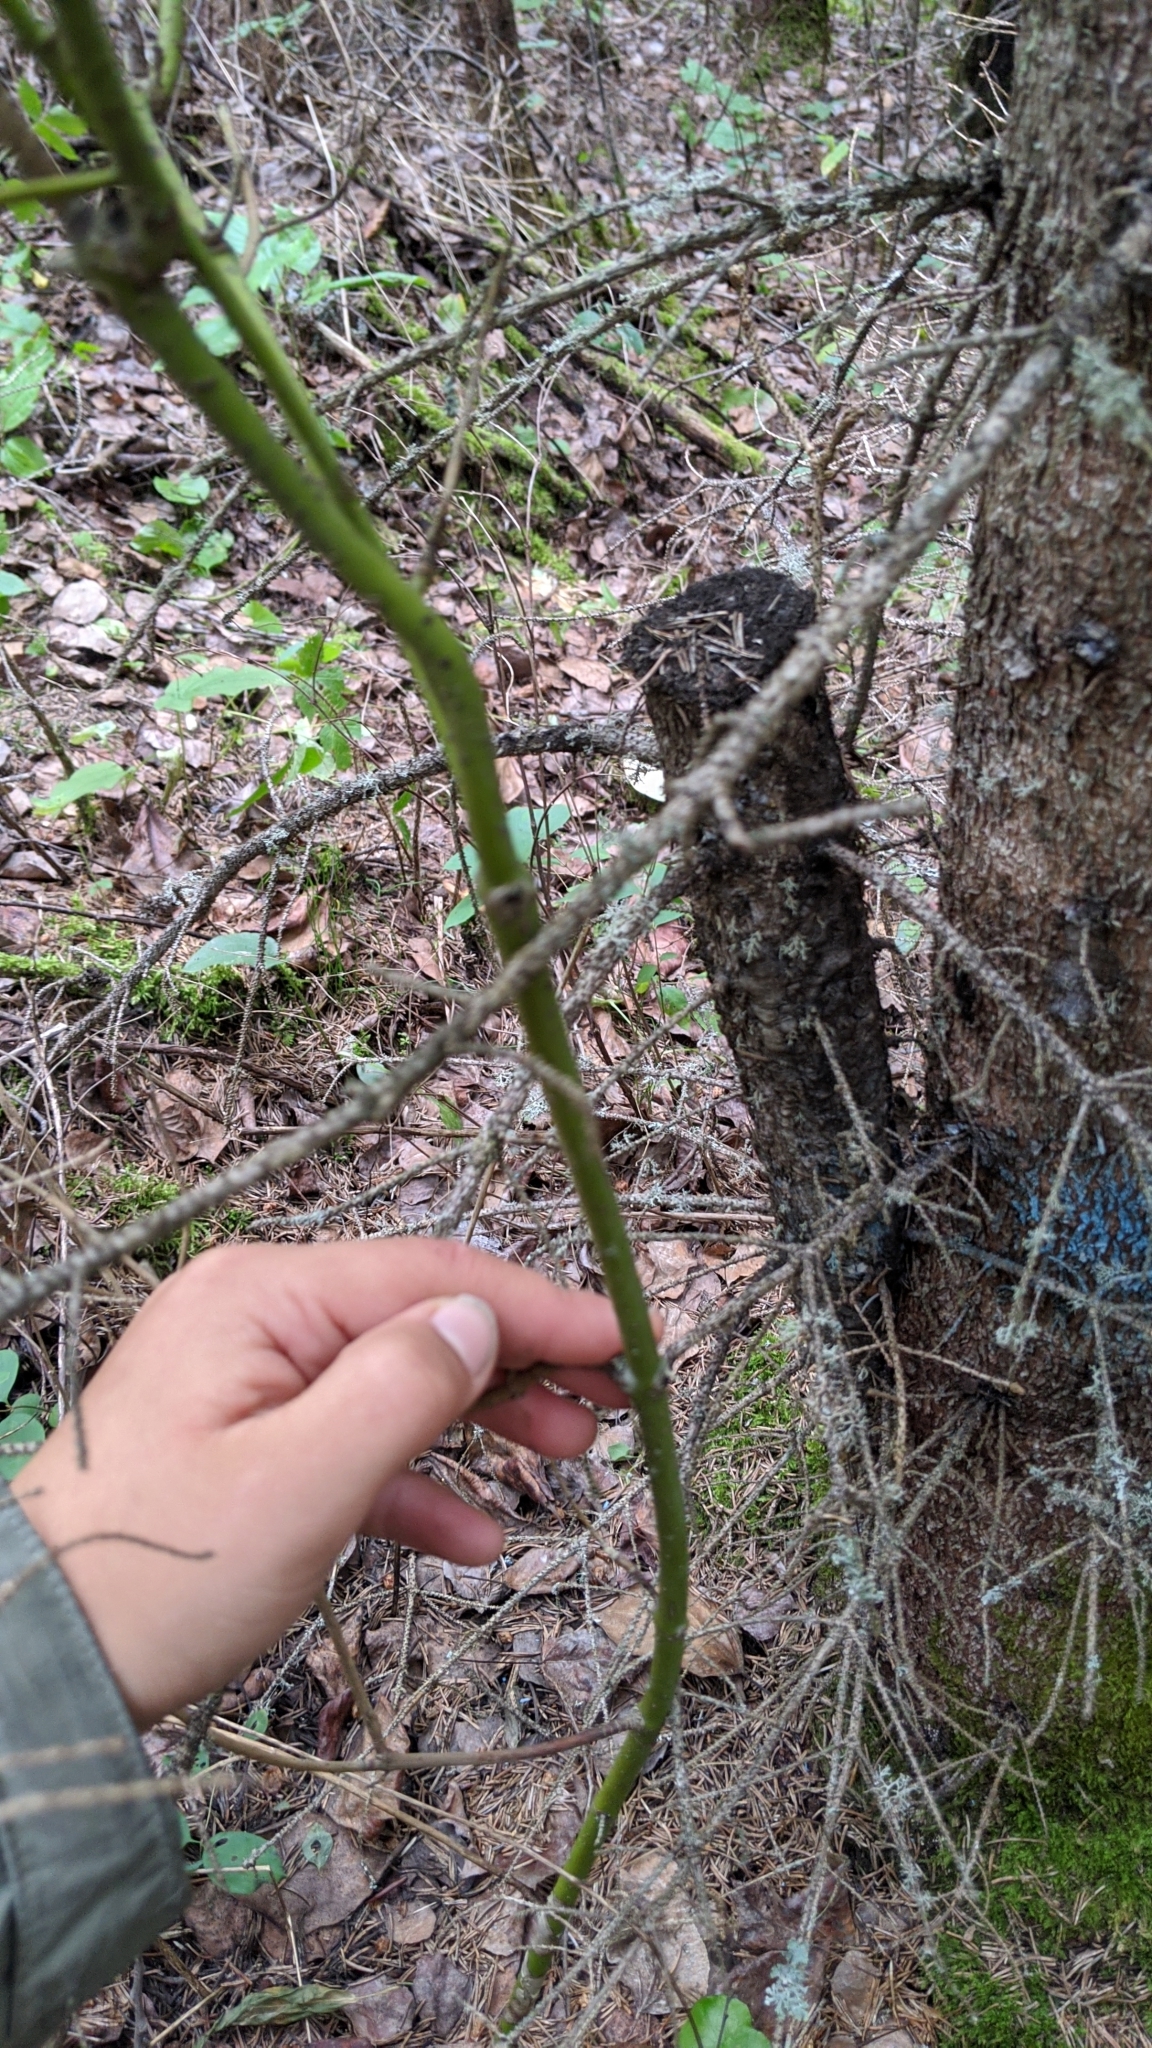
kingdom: Plantae
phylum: Tracheophyta
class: Magnoliopsida
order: Cornales
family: Cornaceae
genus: Cornus
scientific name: Cornus sericea
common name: Red-osier dogwood
